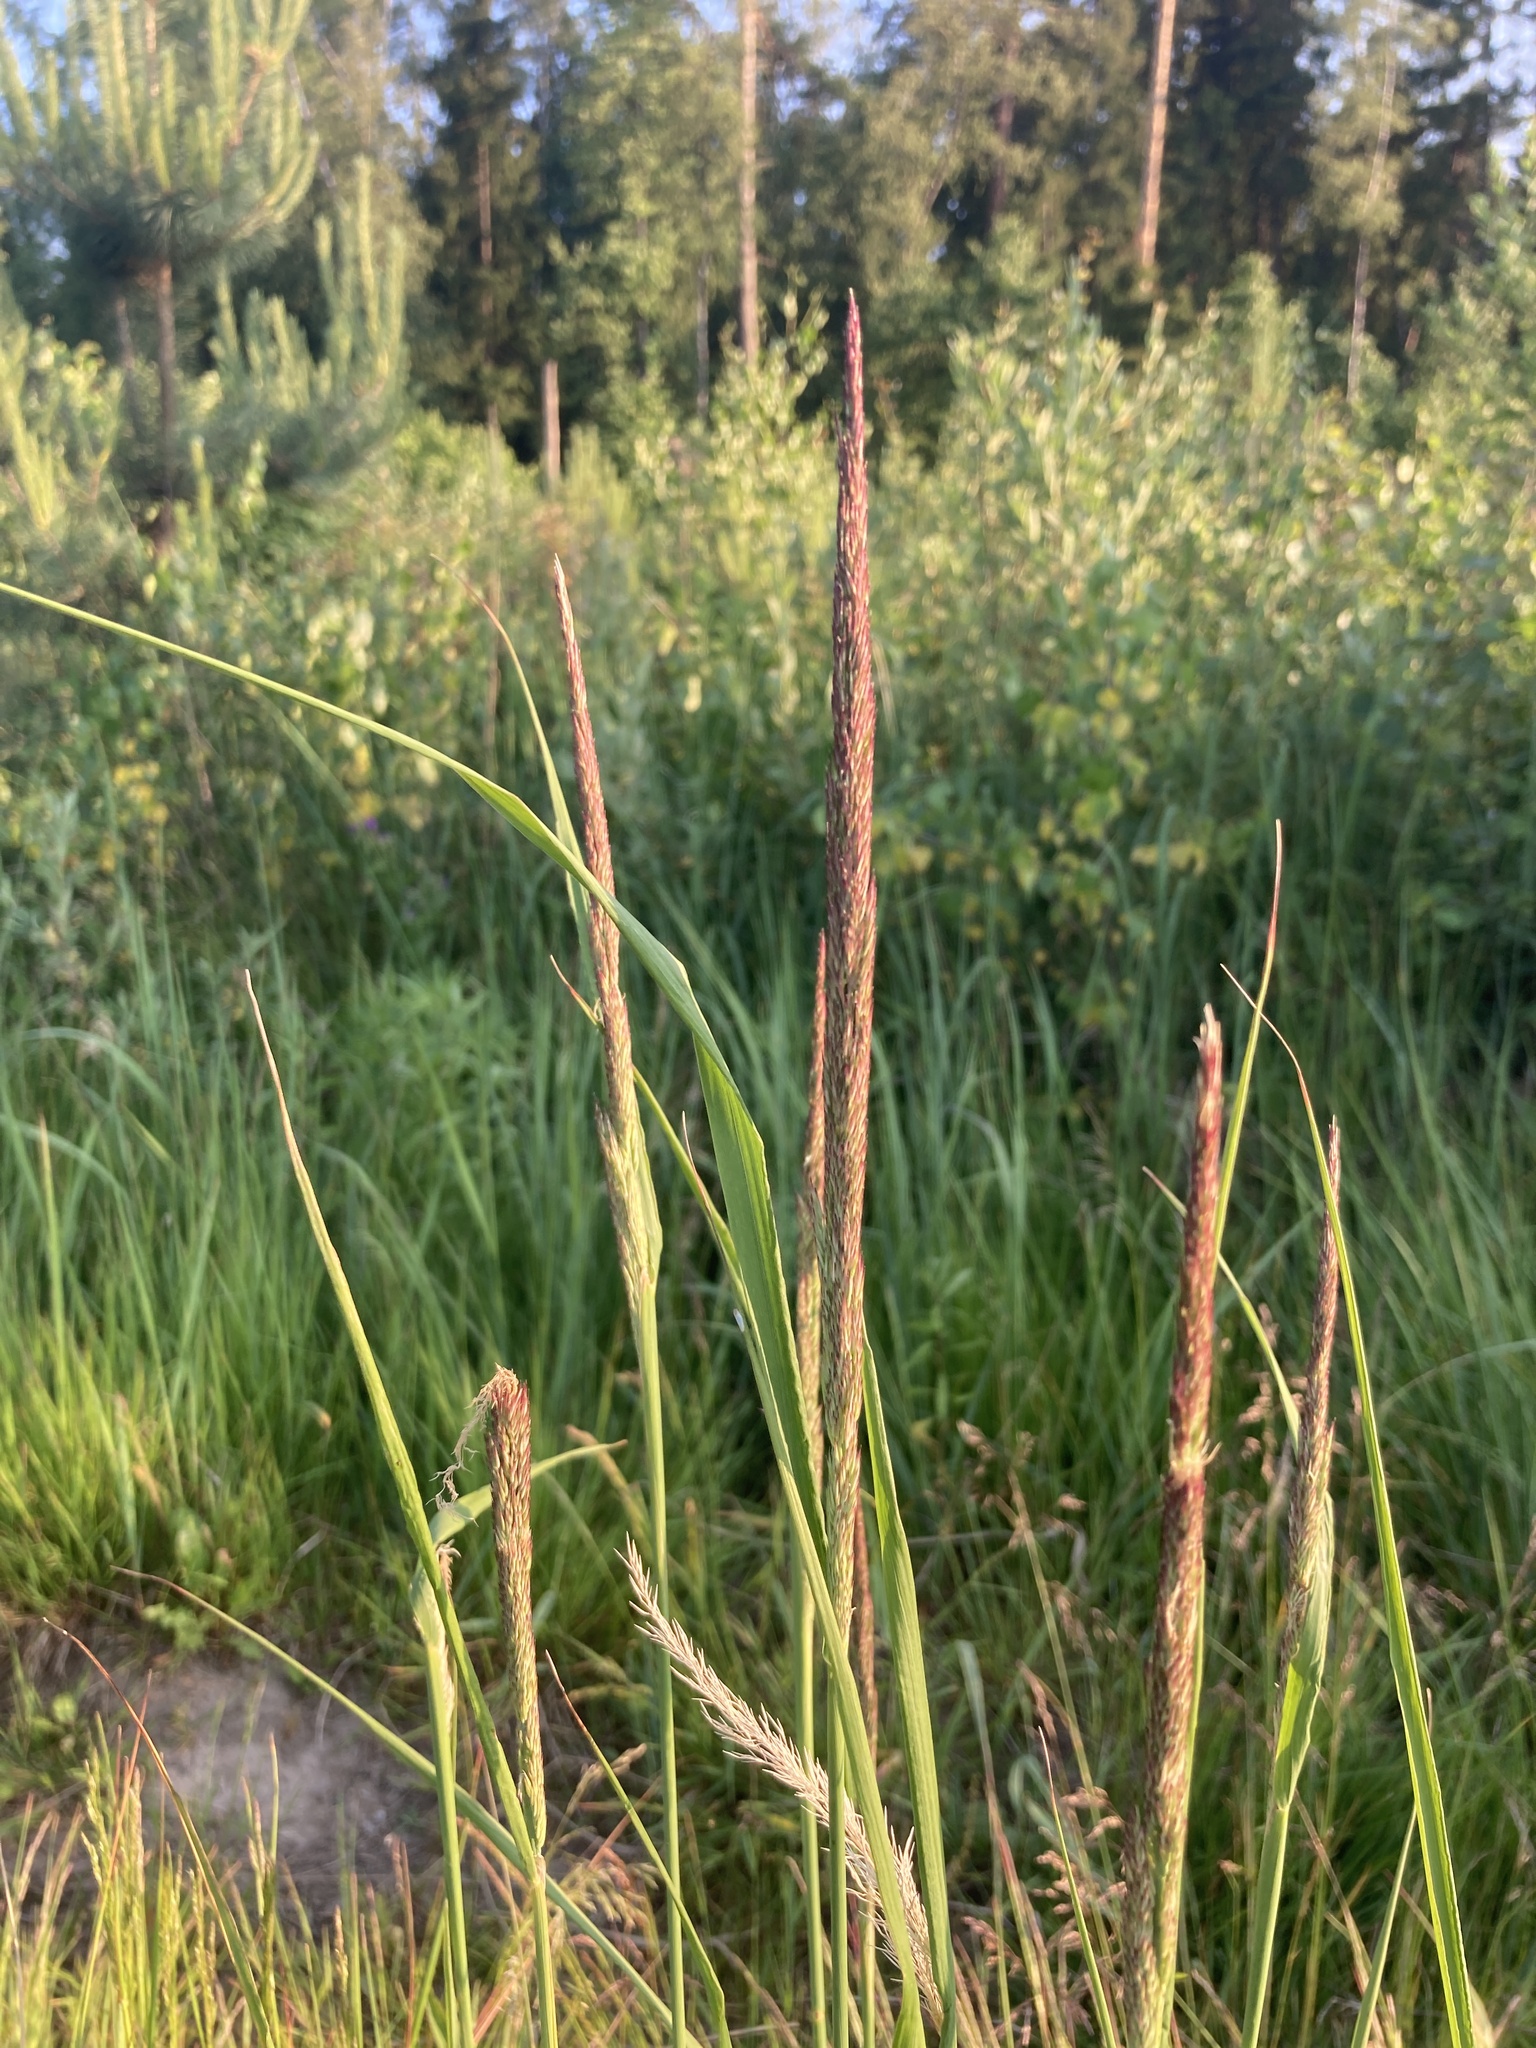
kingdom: Plantae
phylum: Tracheophyta
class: Liliopsida
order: Poales
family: Poaceae
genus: Calamagrostis
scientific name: Calamagrostis epigejos
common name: Wood small-reed
